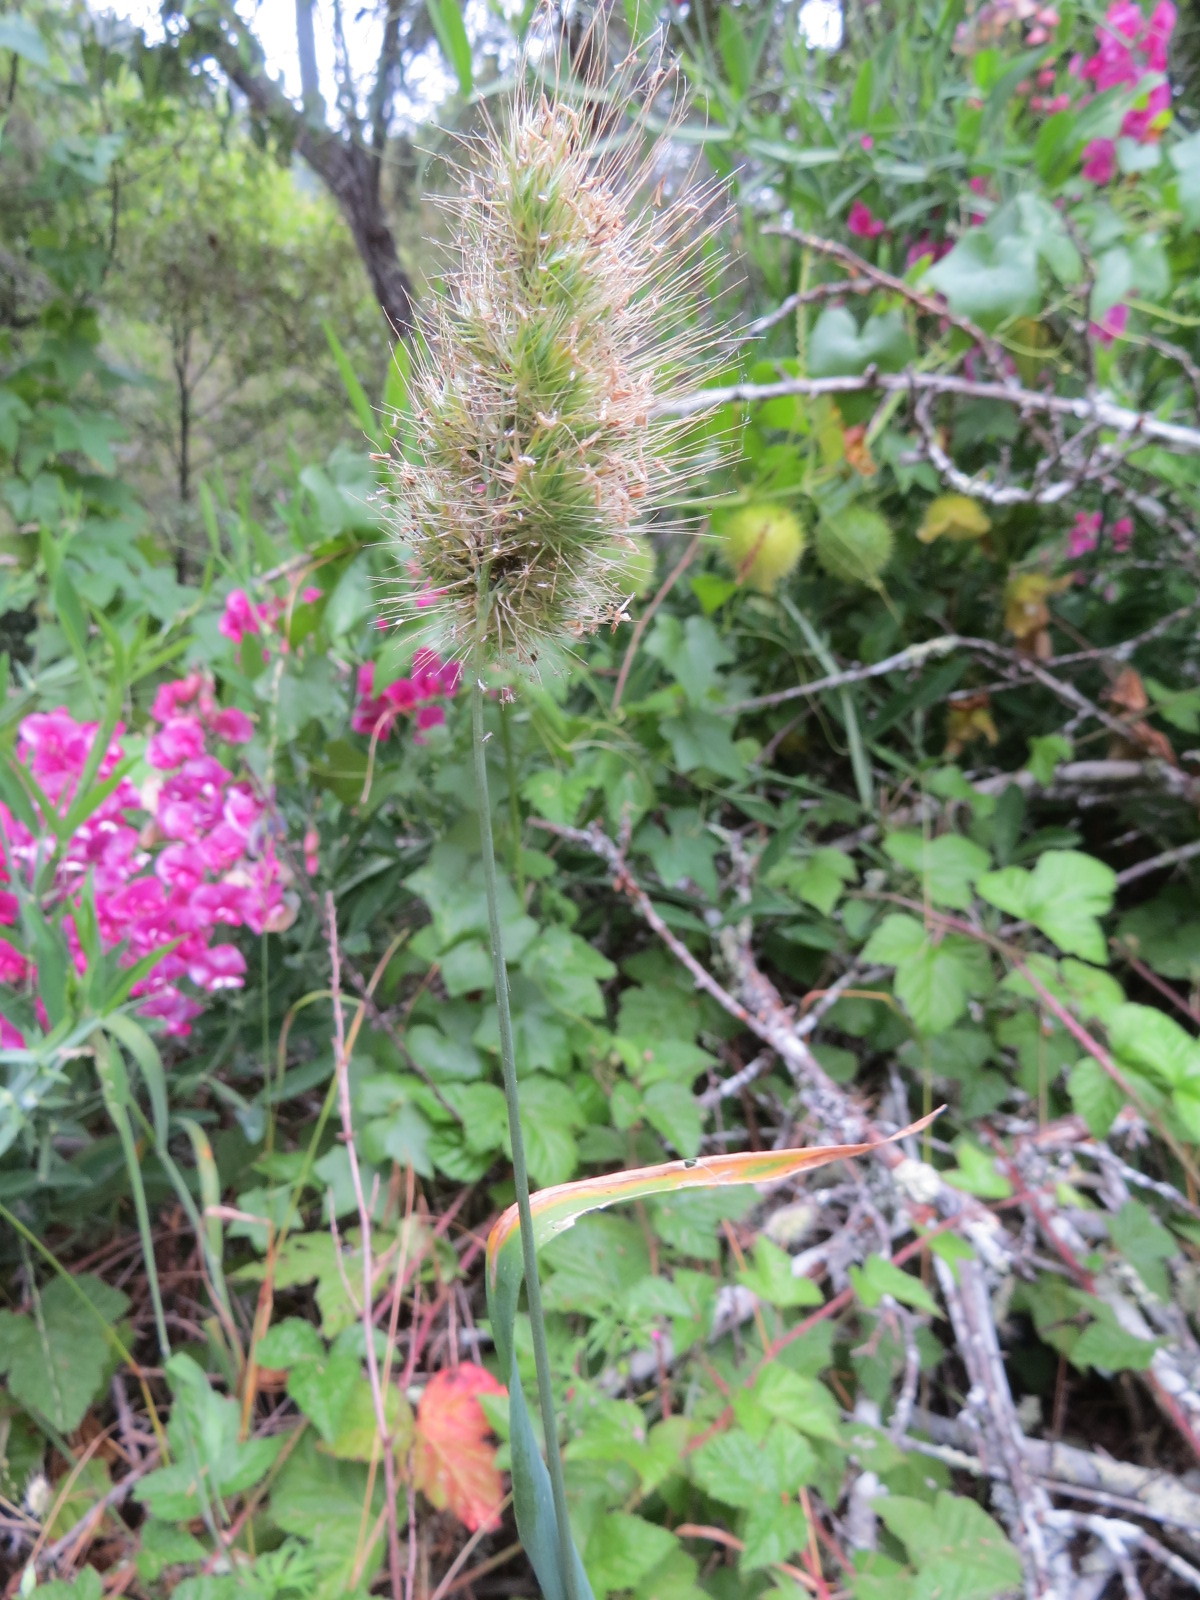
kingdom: Plantae
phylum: Tracheophyta
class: Liliopsida
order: Poales
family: Poaceae
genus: Cynosurus
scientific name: Cynosurus echinatus
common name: Rough dog's-tail
